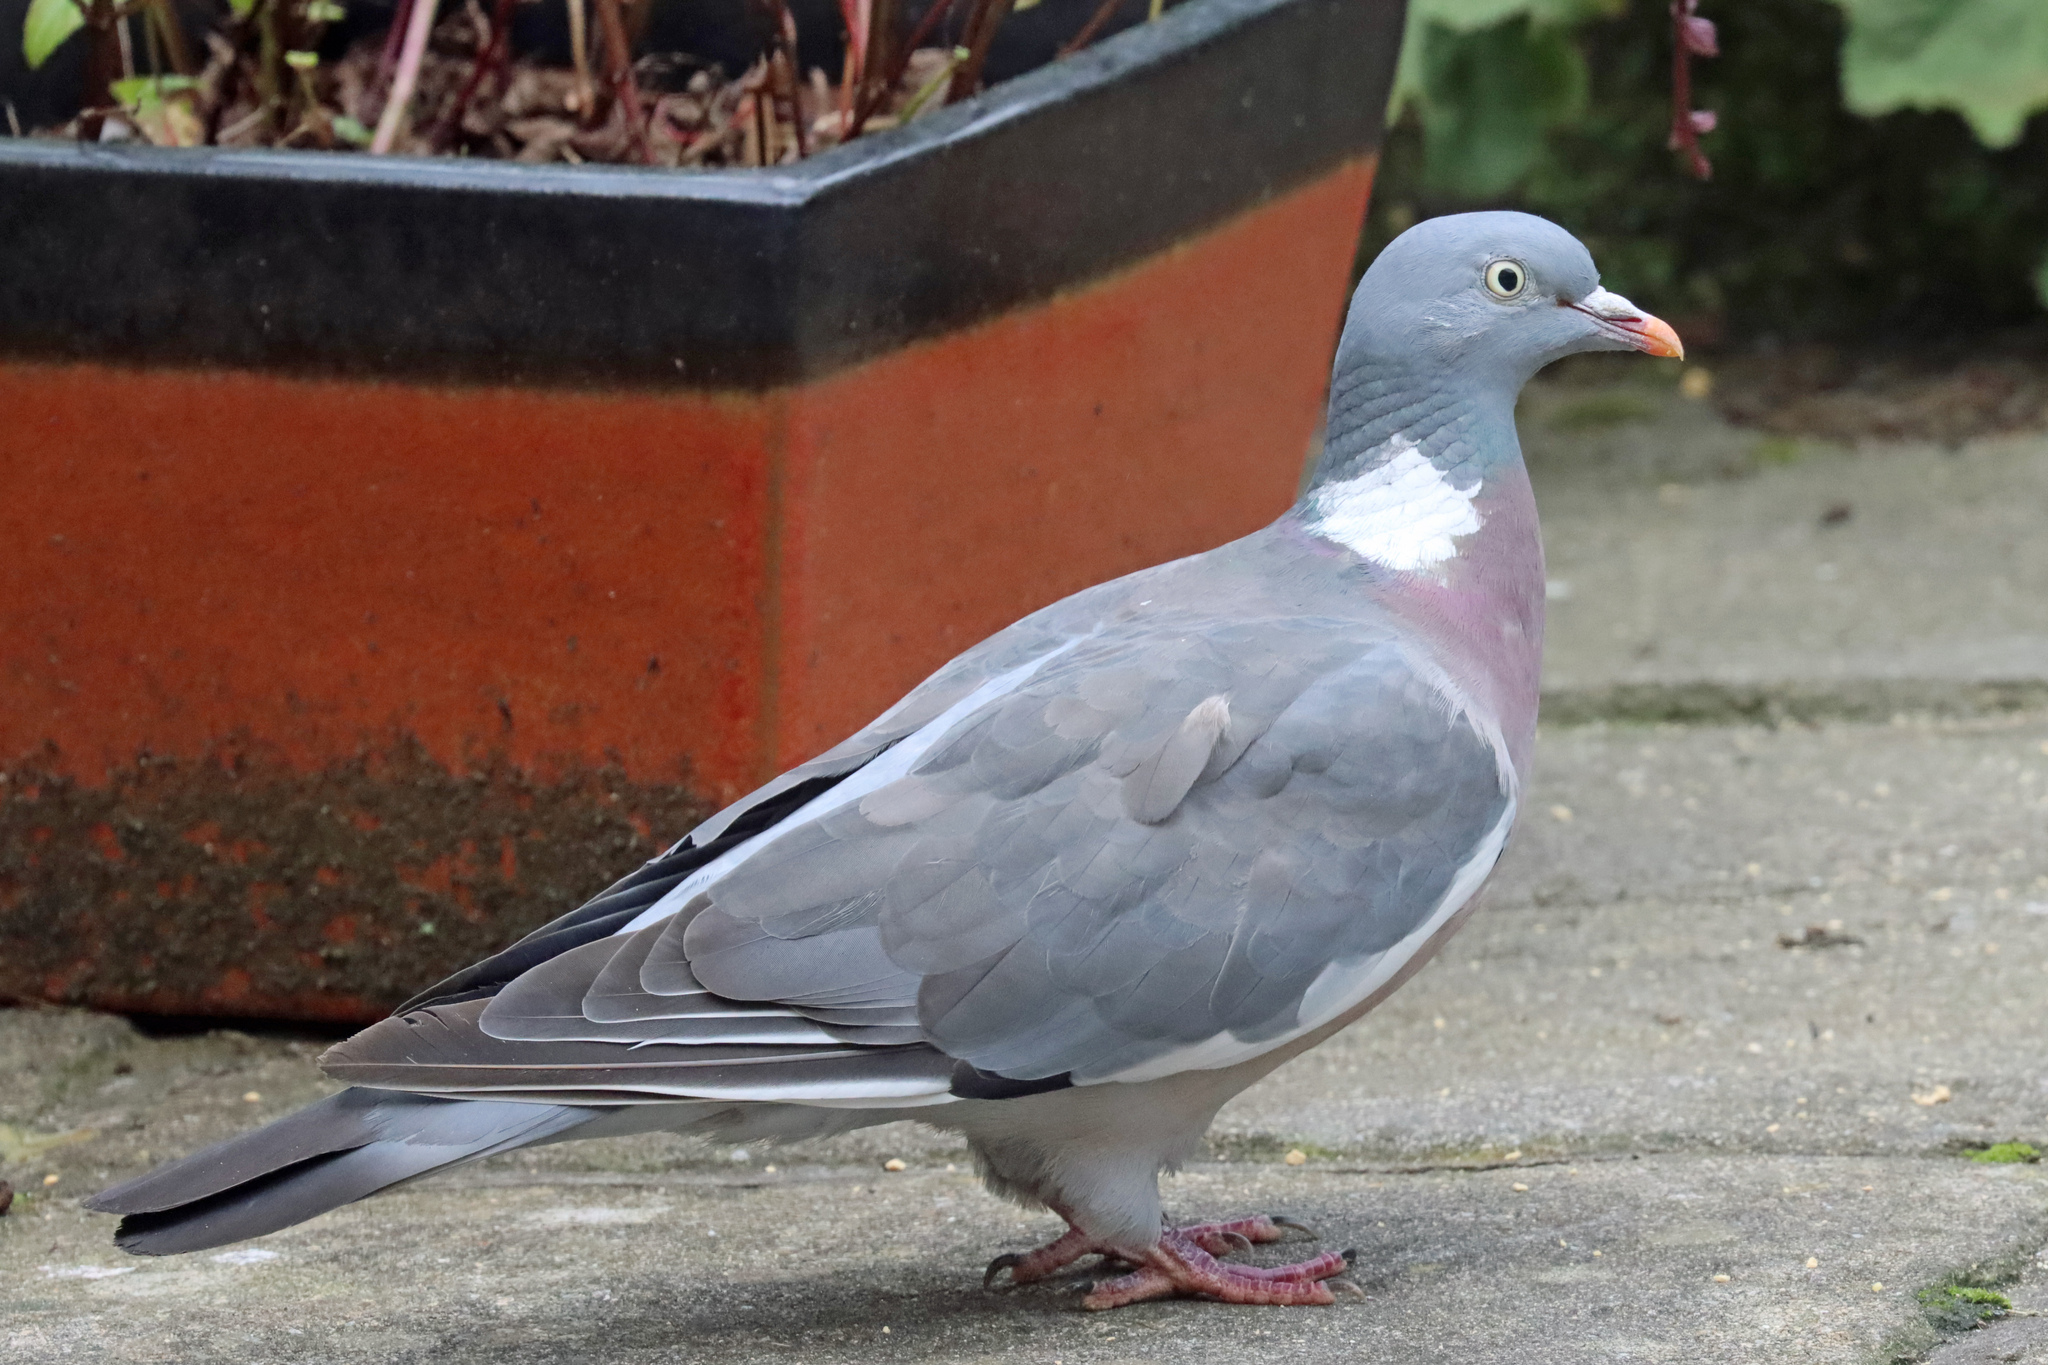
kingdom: Animalia
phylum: Chordata
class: Aves
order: Columbiformes
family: Columbidae
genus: Columba
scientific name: Columba palumbus
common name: Common wood pigeon
